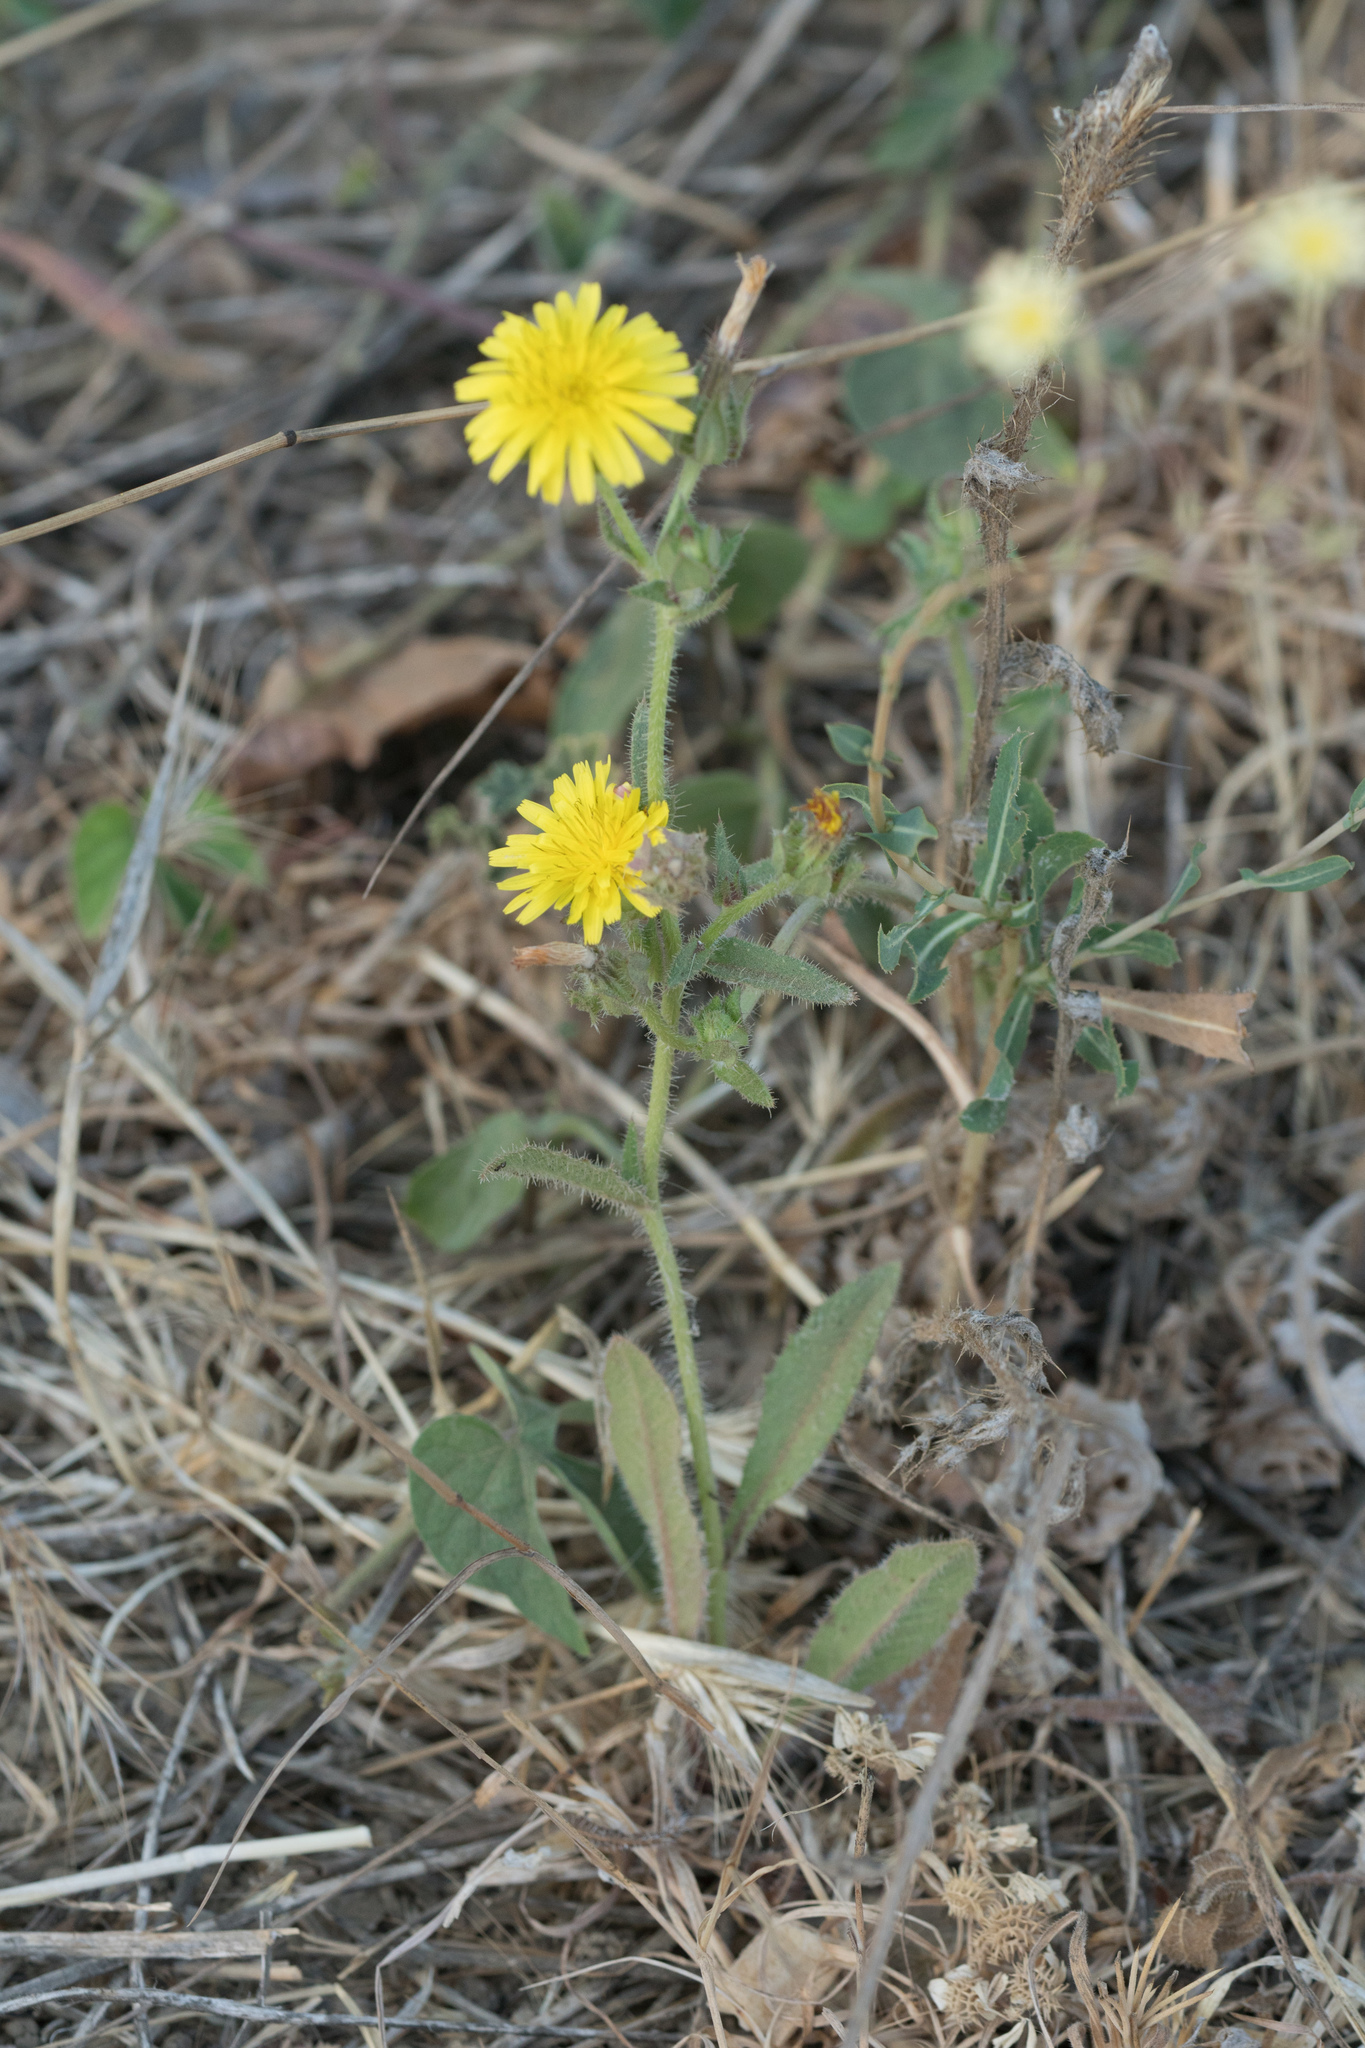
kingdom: Plantae
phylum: Tracheophyta
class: Magnoliopsida
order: Asterales
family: Asteraceae
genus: Helminthotheca
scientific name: Helminthotheca echioides
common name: Ox-tongue
